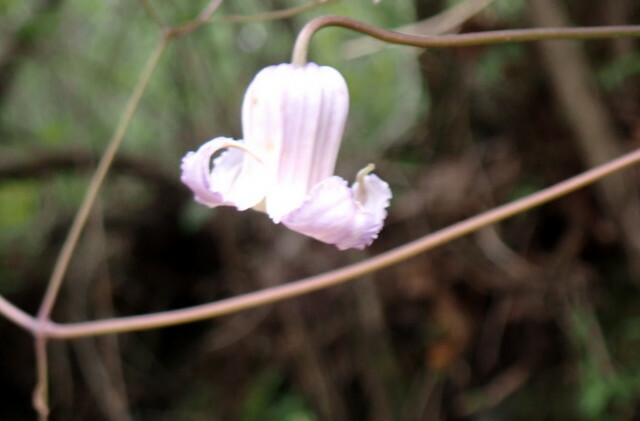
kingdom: Plantae
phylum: Tracheophyta
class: Magnoliopsida
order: Ranunculales
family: Ranunculaceae
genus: Clematis
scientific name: Clematis crispa
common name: Curly clematis
